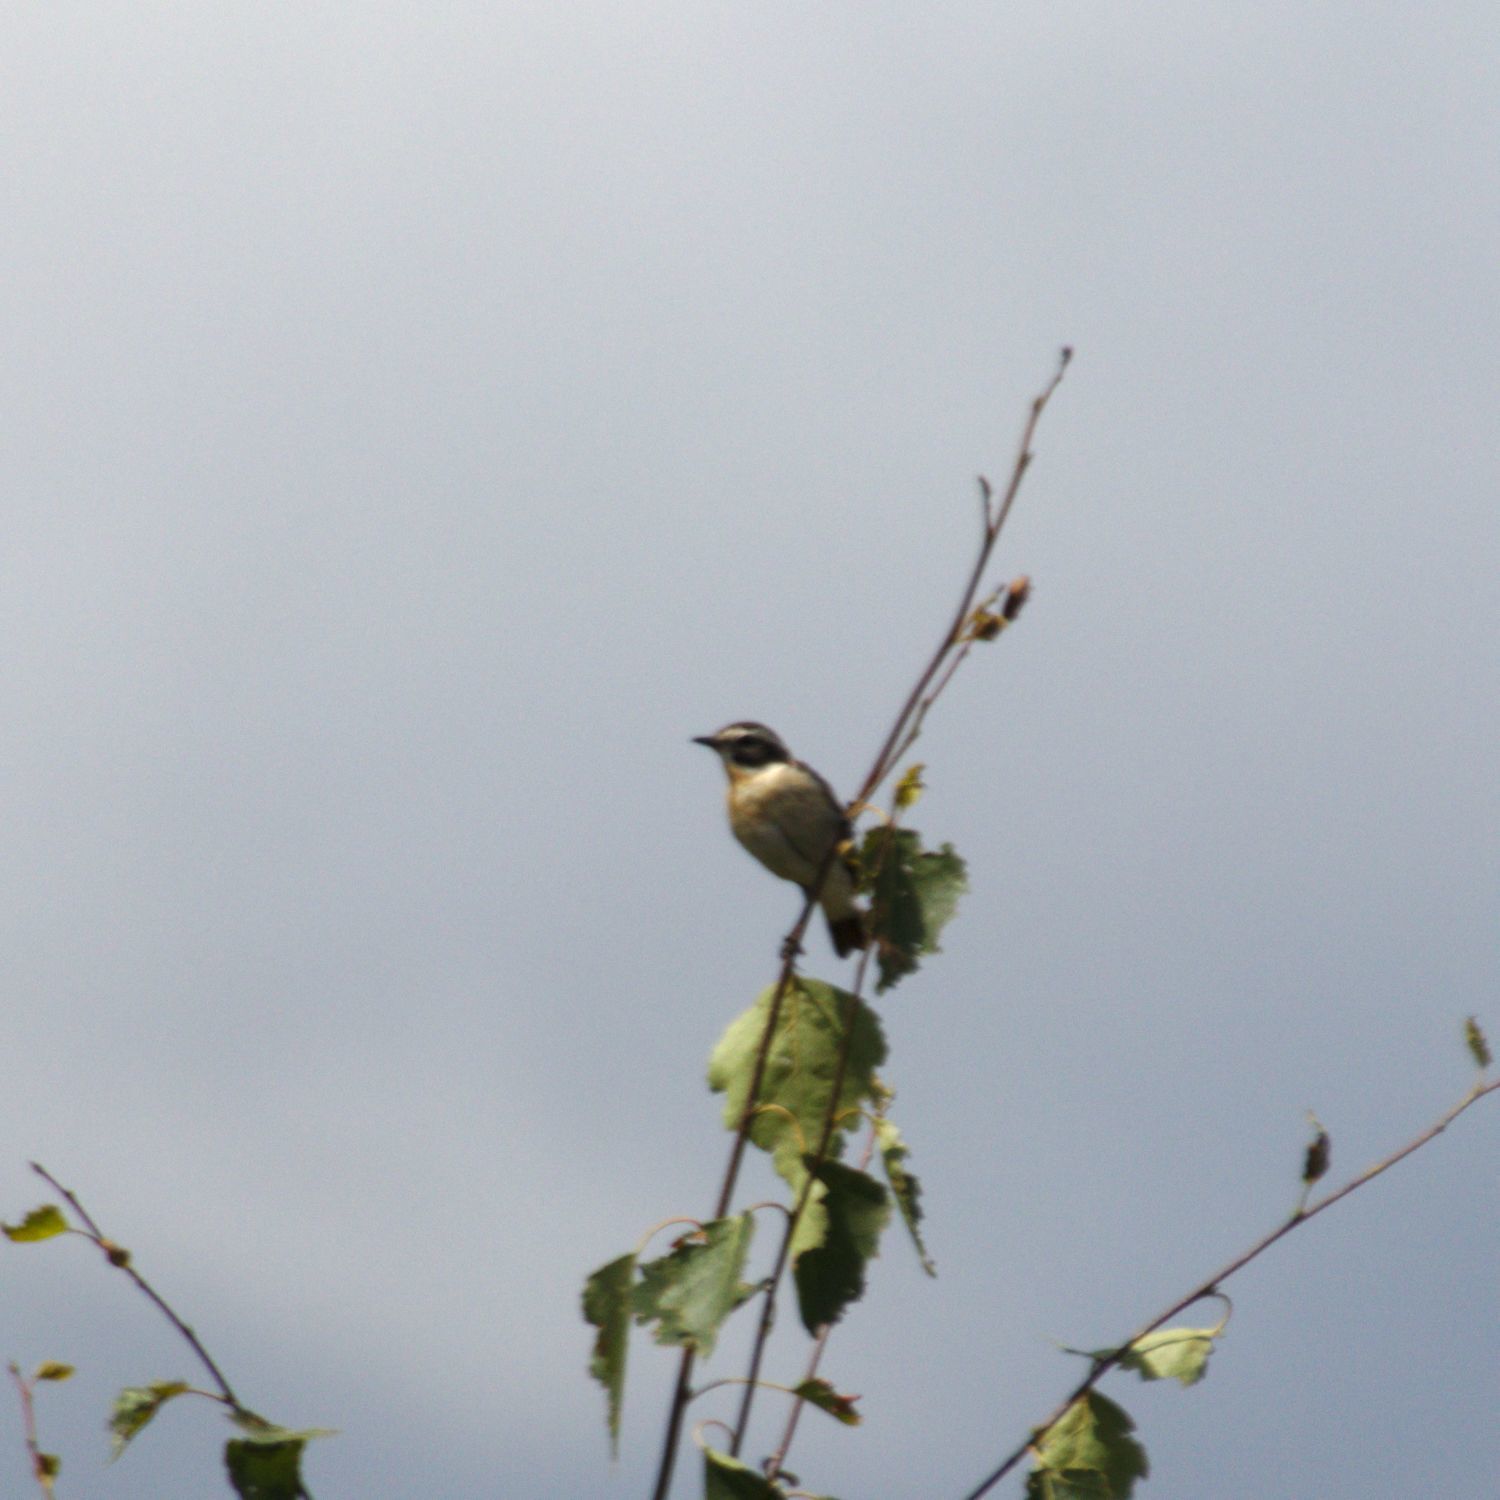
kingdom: Animalia
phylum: Chordata
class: Aves
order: Passeriformes
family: Muscicapidae
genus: Saxicola
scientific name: Saxicola rubetra
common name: Whinchat
